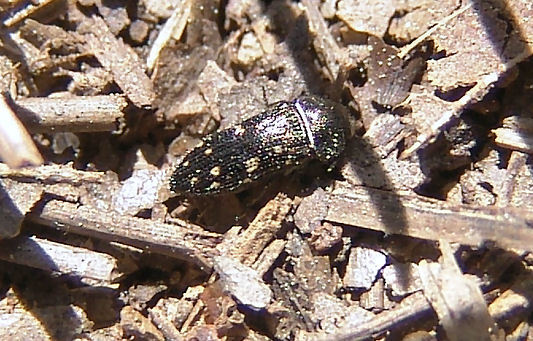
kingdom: Animalia
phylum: Arthropoda
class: Insecta
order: Coleoptera
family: Buprestidae
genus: Acmaeodera
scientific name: Acmaeodera tubulus
